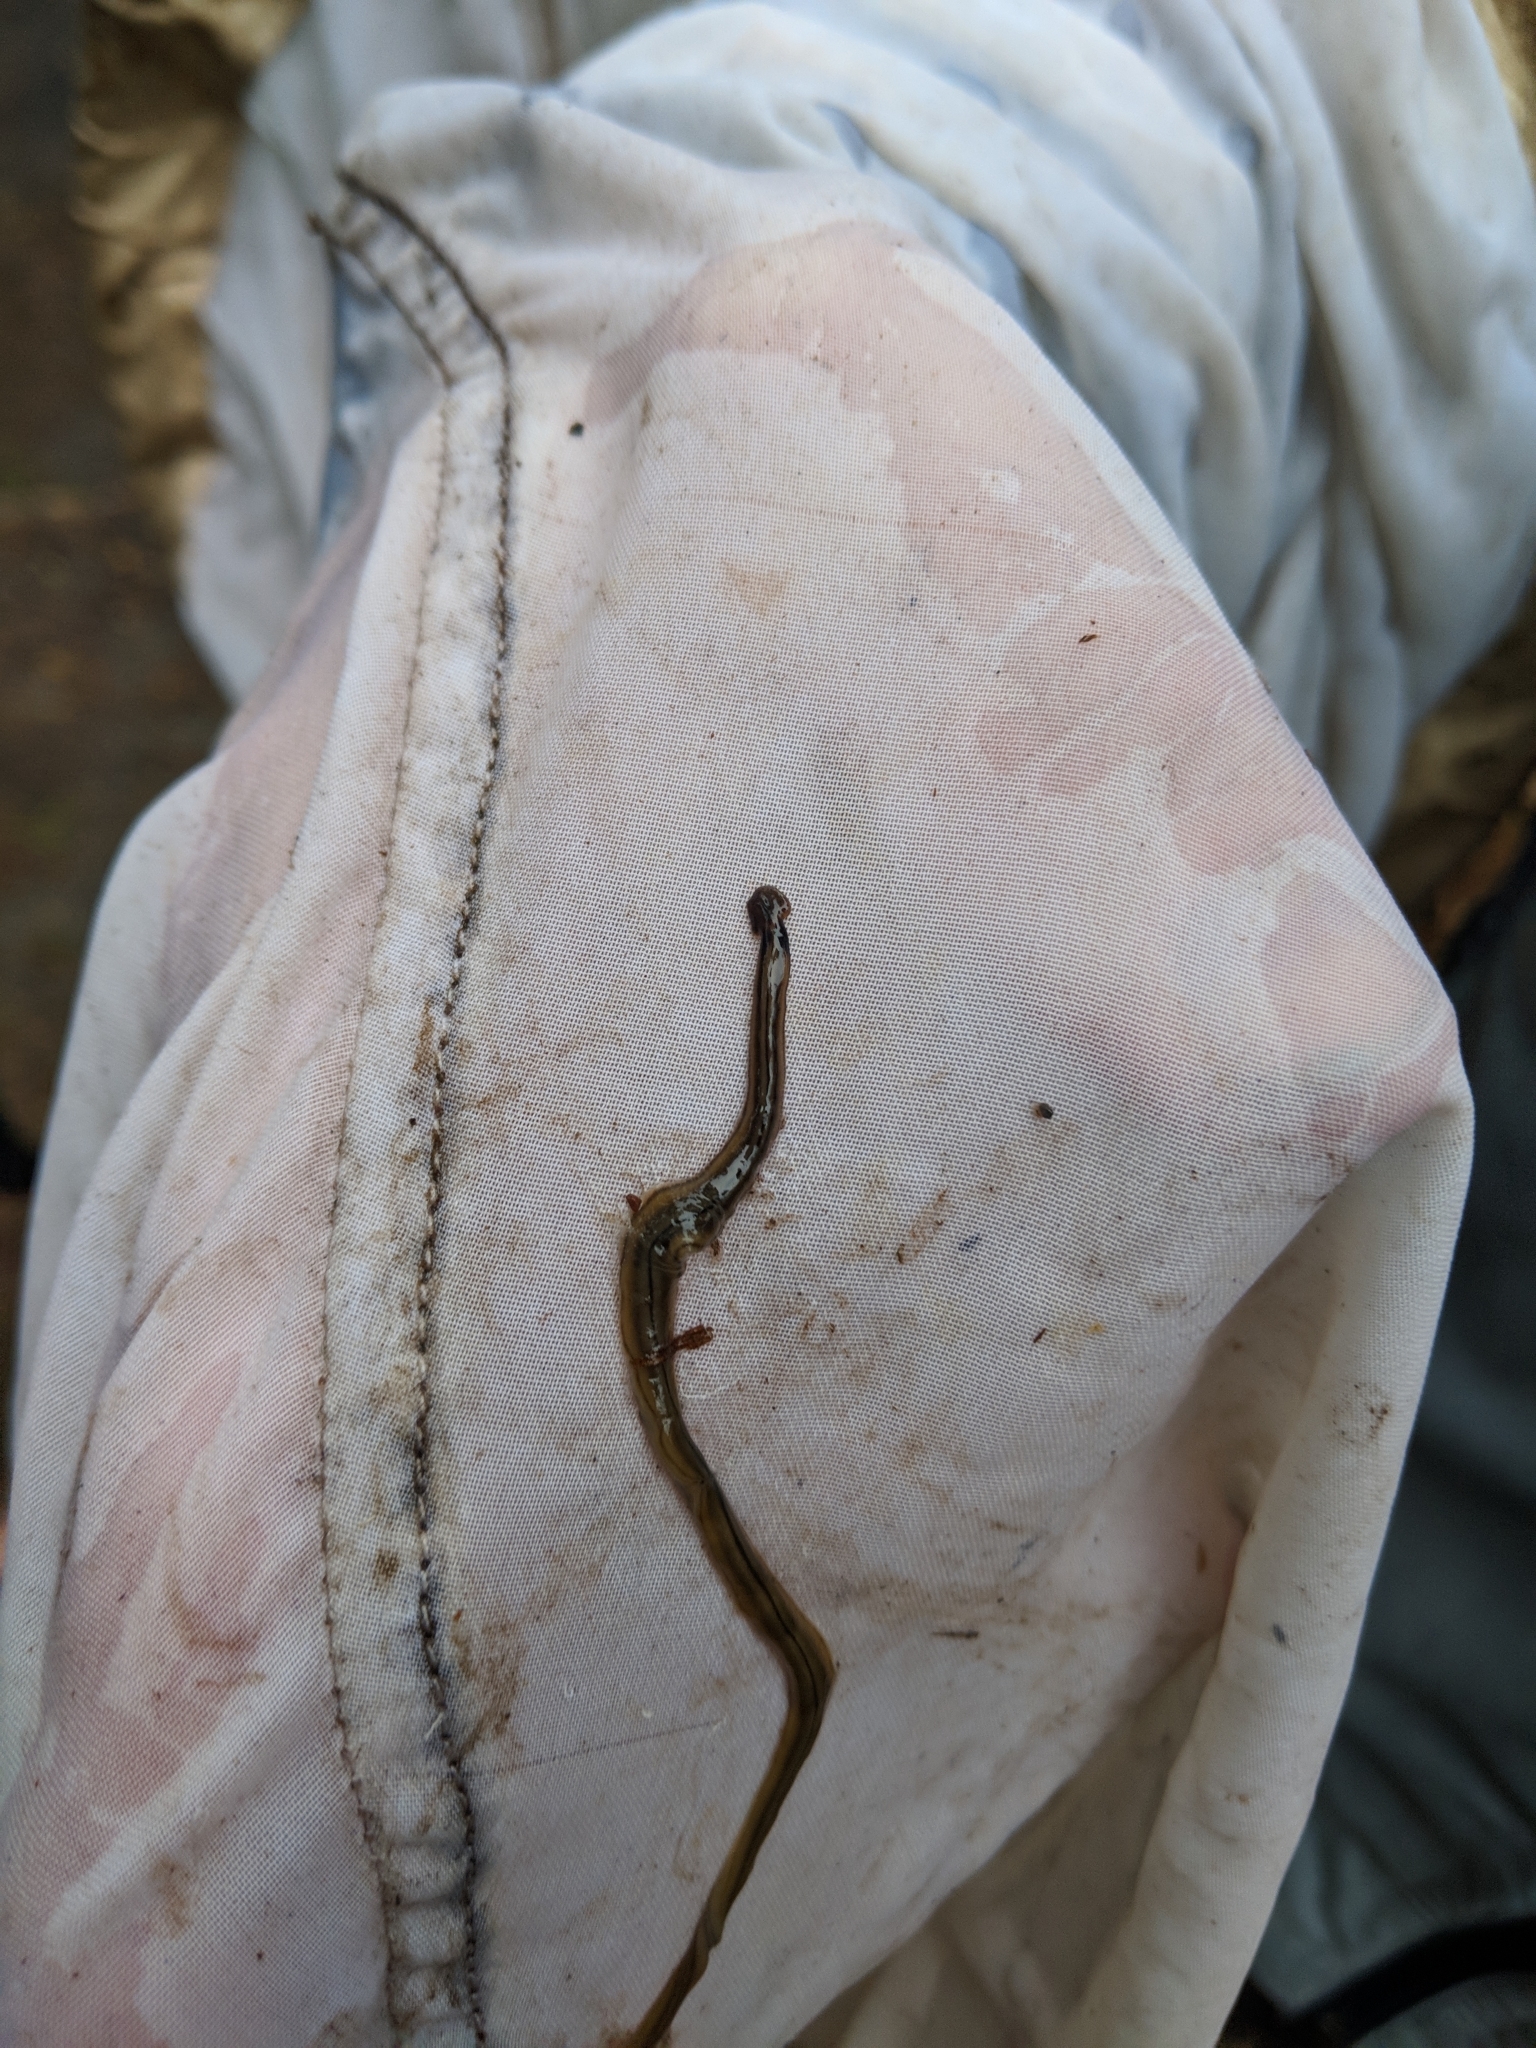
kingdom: Animalia
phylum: Platyhelminthes
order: Tricladida
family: Geoplanidae
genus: Bipalium
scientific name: Bipalium kewense
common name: Hammerhead flatworm
